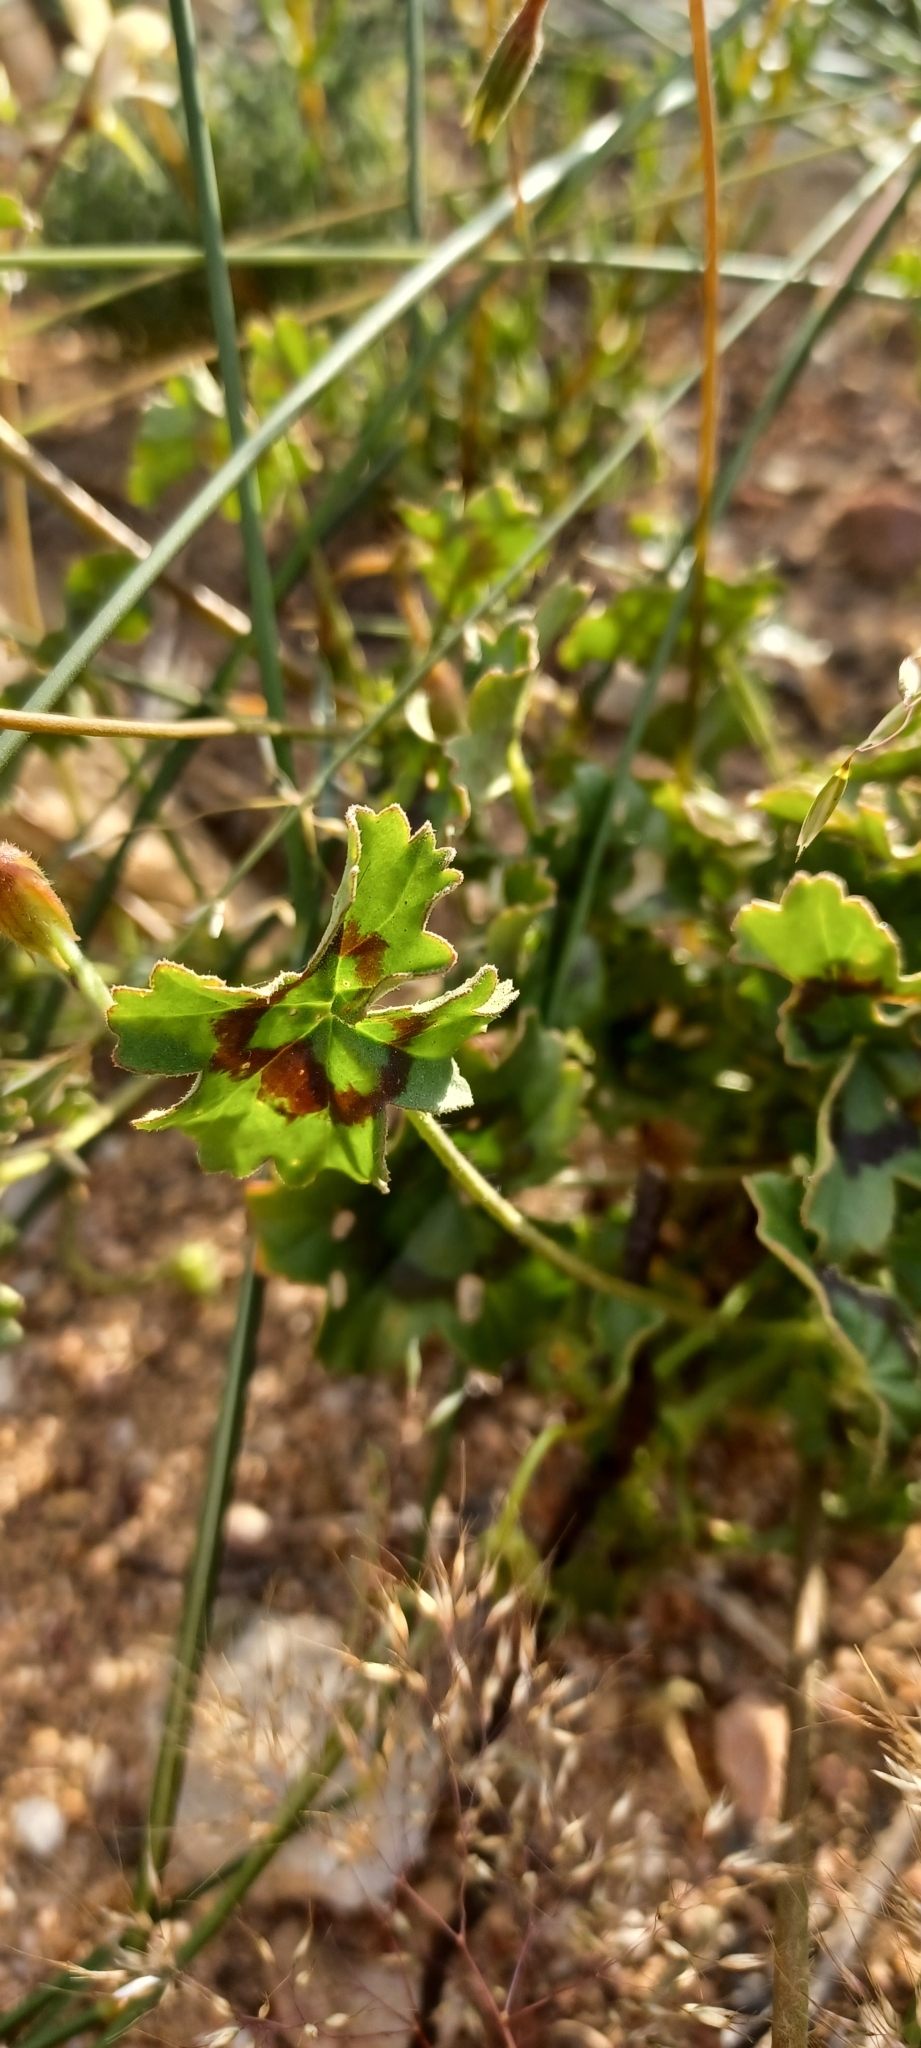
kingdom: Plantae
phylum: Tracheophyta
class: Magnoliopsida
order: Geraniales
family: Geraniaceae
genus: Pelargonium
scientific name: Pelargonium elongatum
